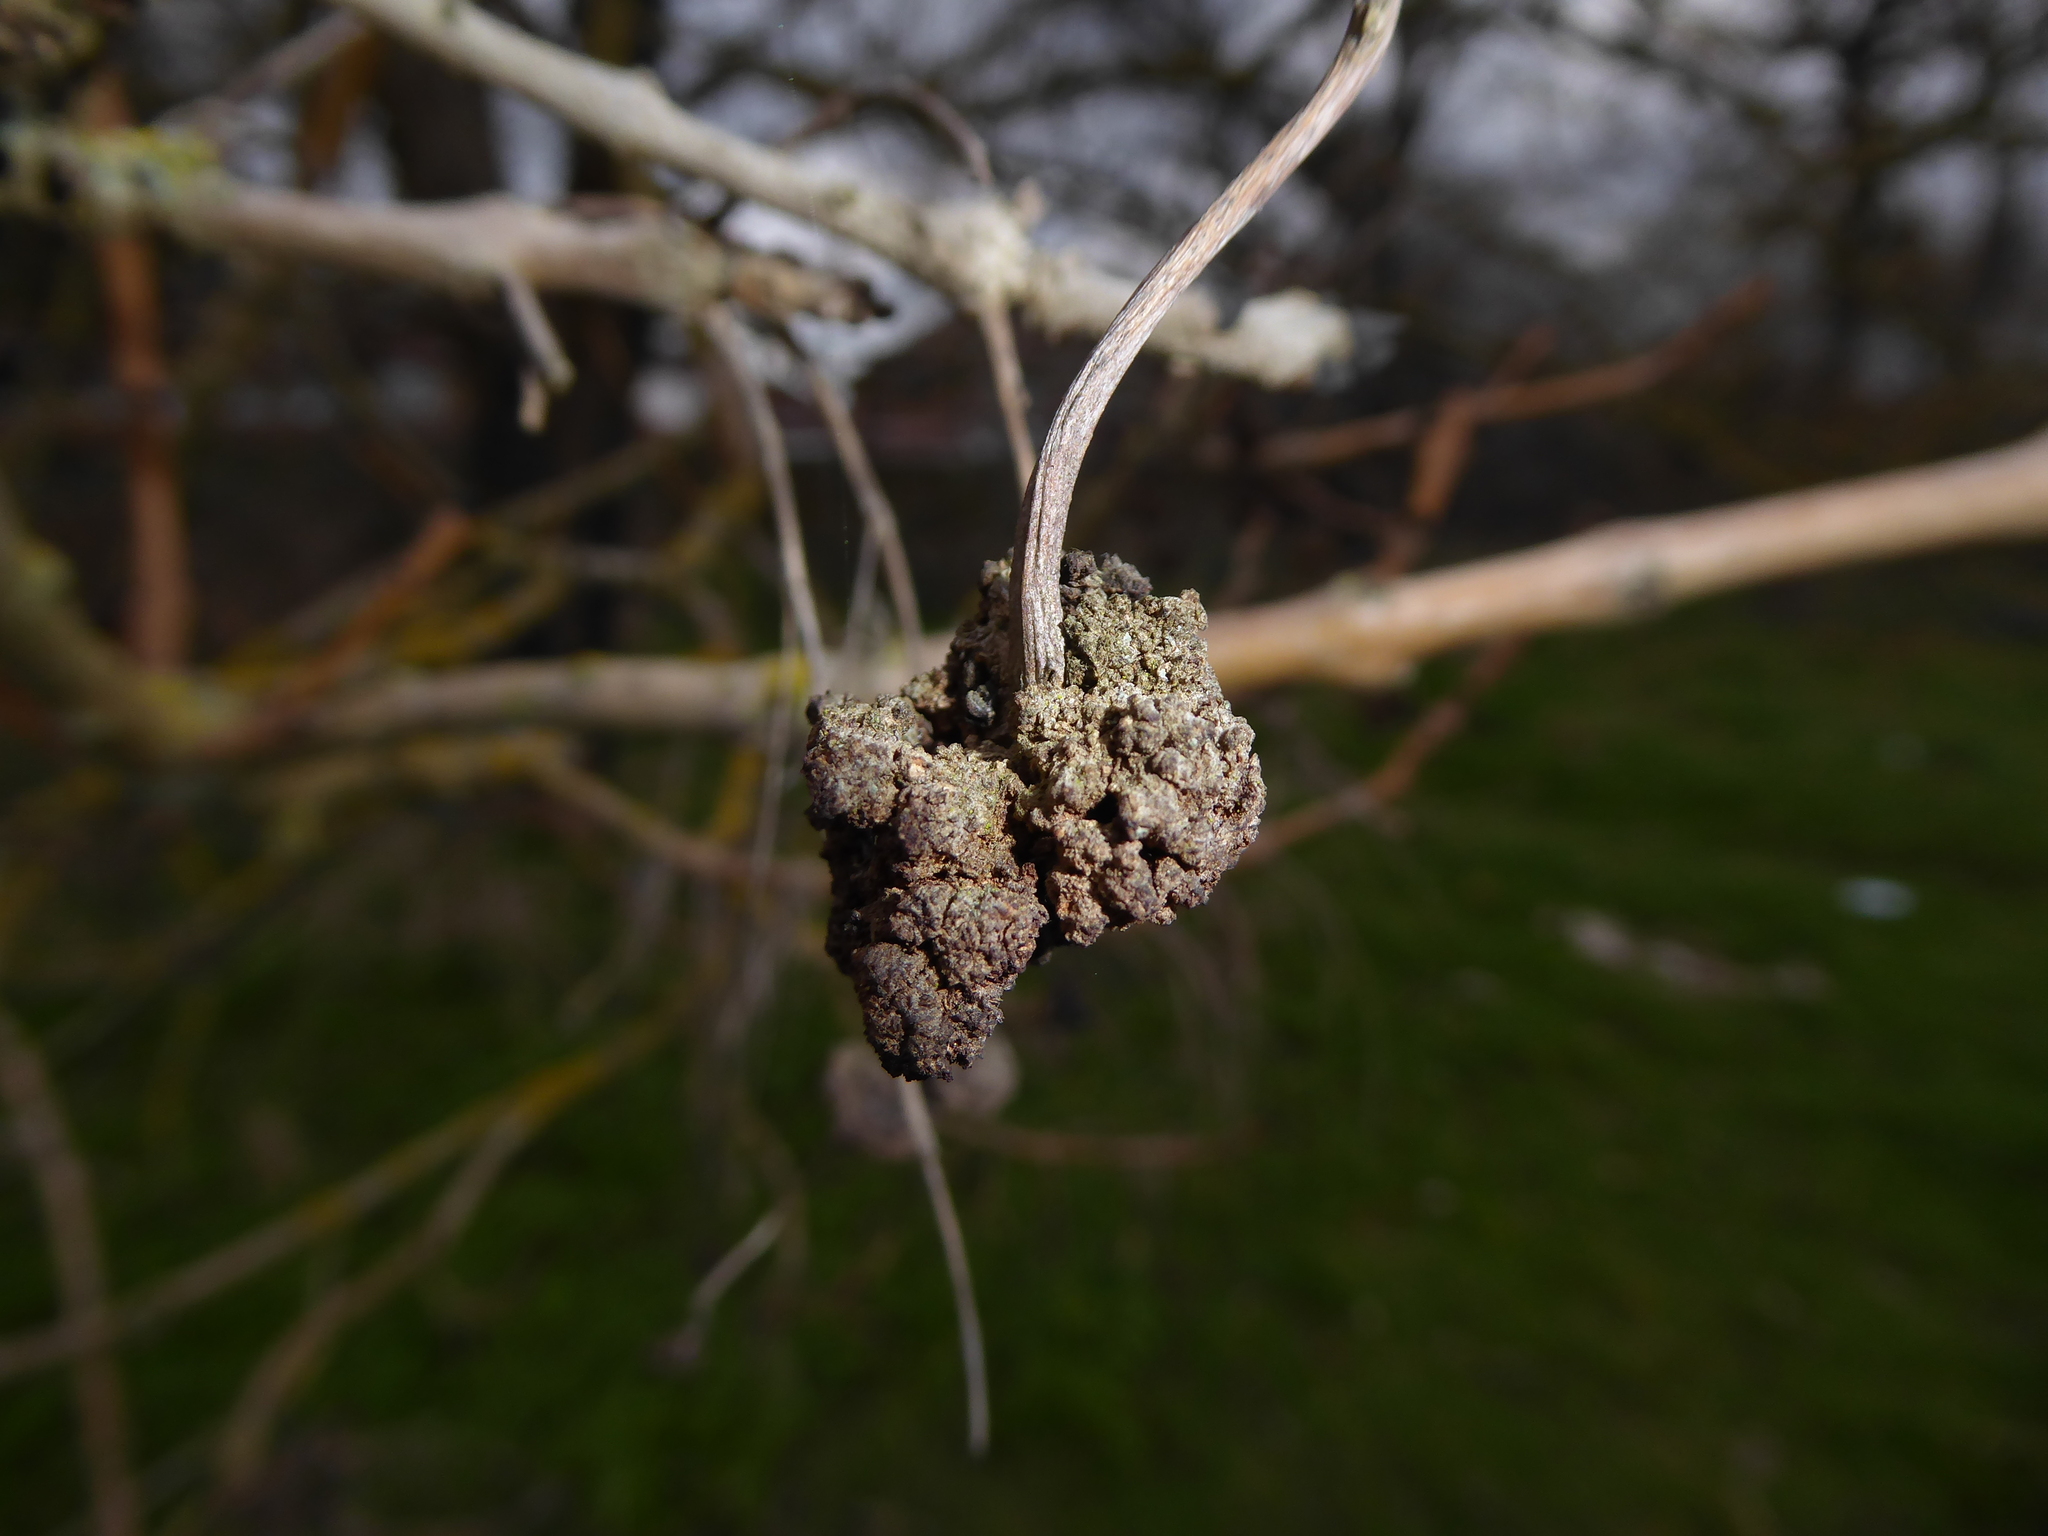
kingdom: Plantae
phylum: Tracheophyta
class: Magnoliopsida
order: Lamiales
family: Oleaceae
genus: Fraxinus
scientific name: Fraxinus excelsior
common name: European ash
